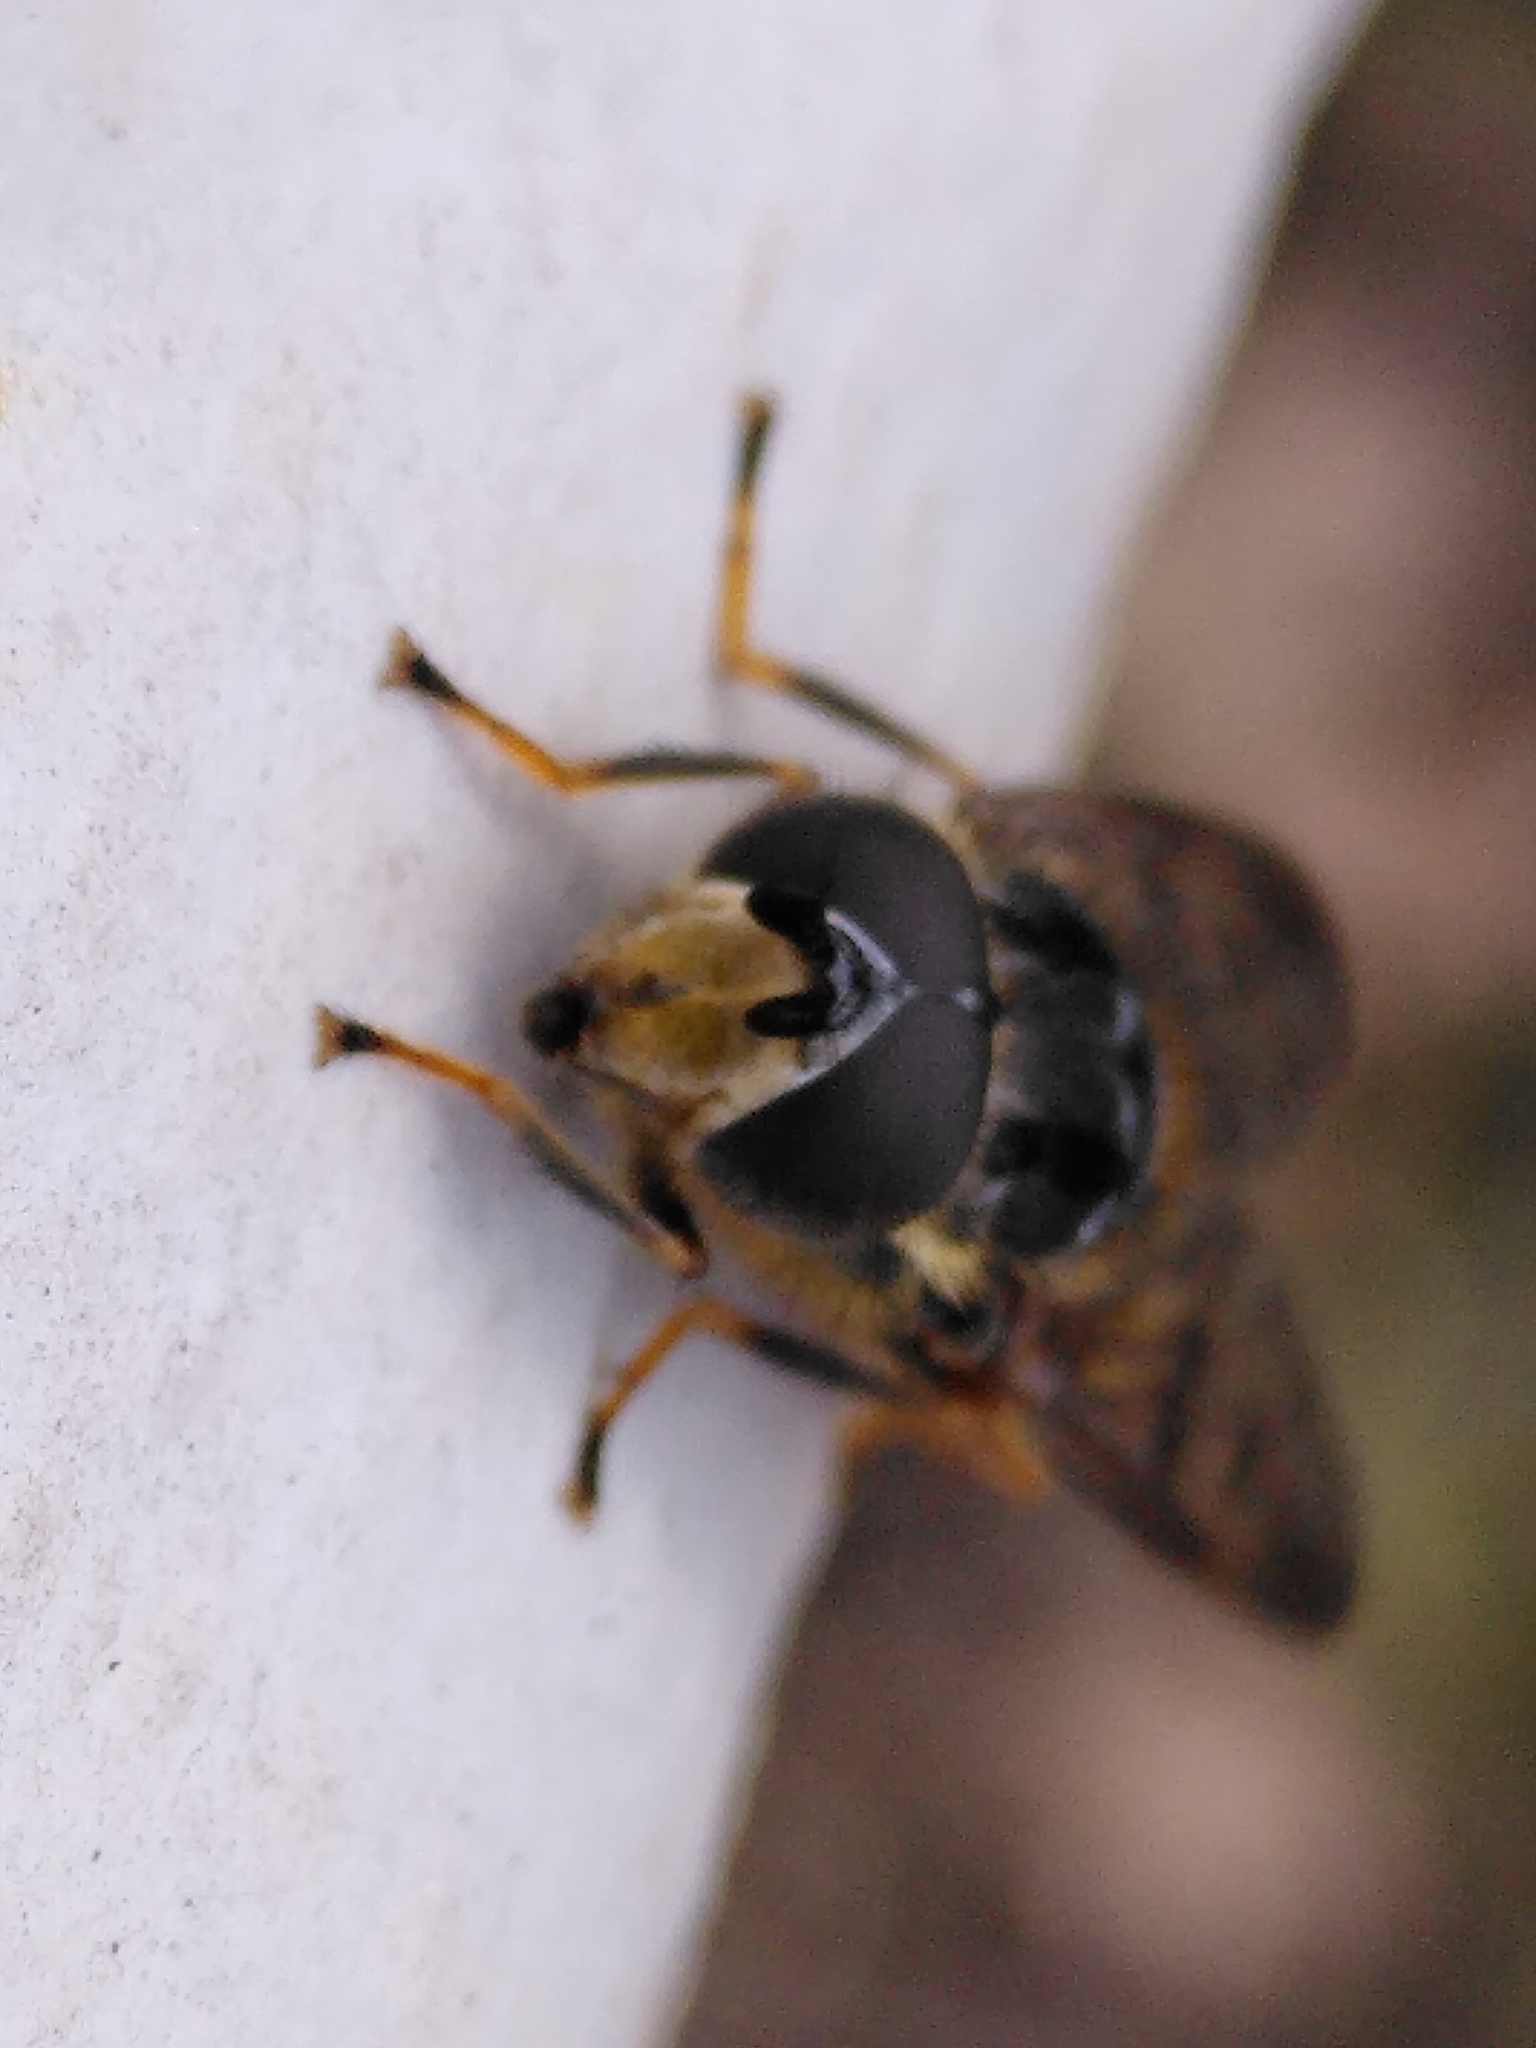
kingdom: Animalia
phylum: Arthropoda
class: Insecta
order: Diptera
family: Syrphidae
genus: Ferdinandea
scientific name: Ferdinandea fumipennis
